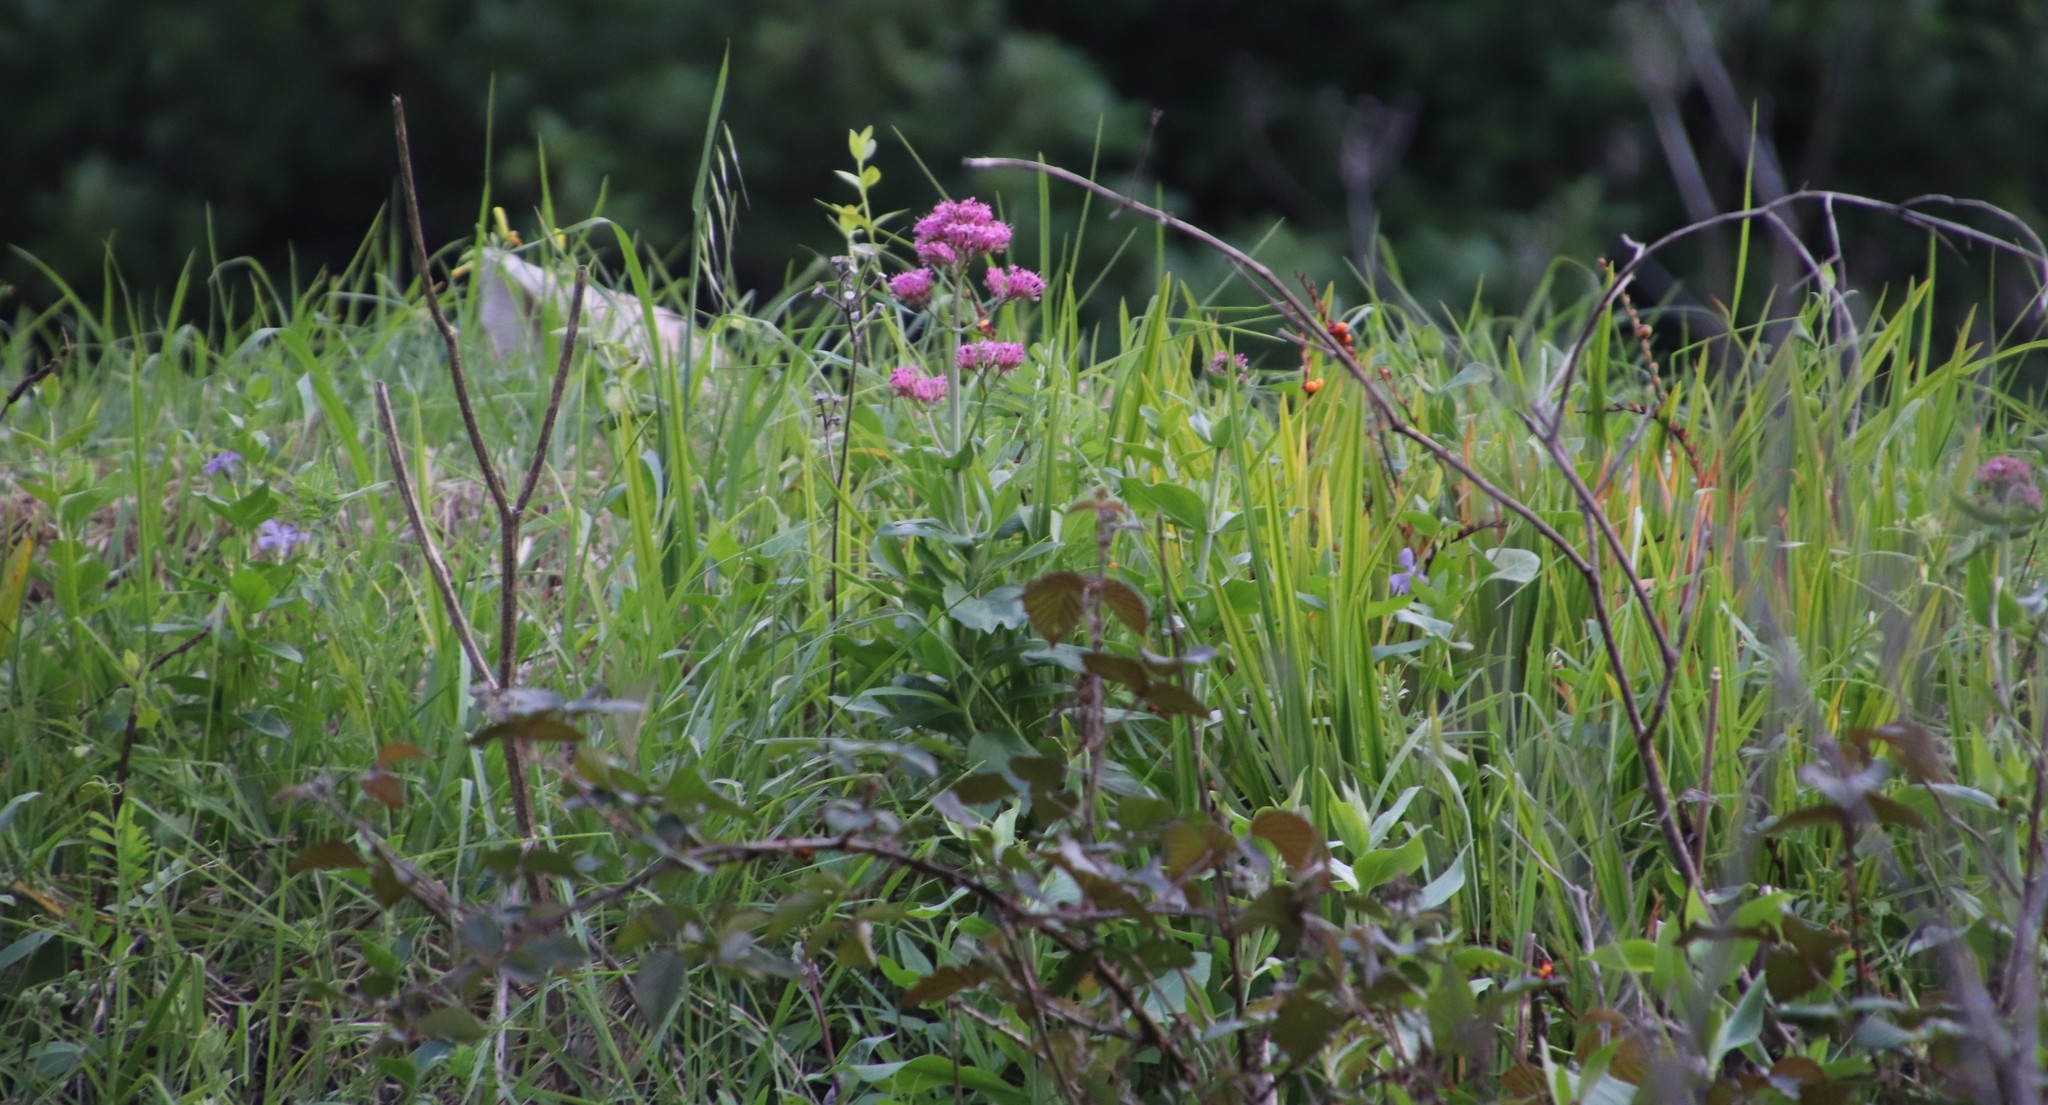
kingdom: Plantae
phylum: Tracheophyta
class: Magnoliopsida
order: Dipsacales
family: Caprifoliaceae
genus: Centranthus
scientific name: Centranthus ruber
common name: Red valerian
